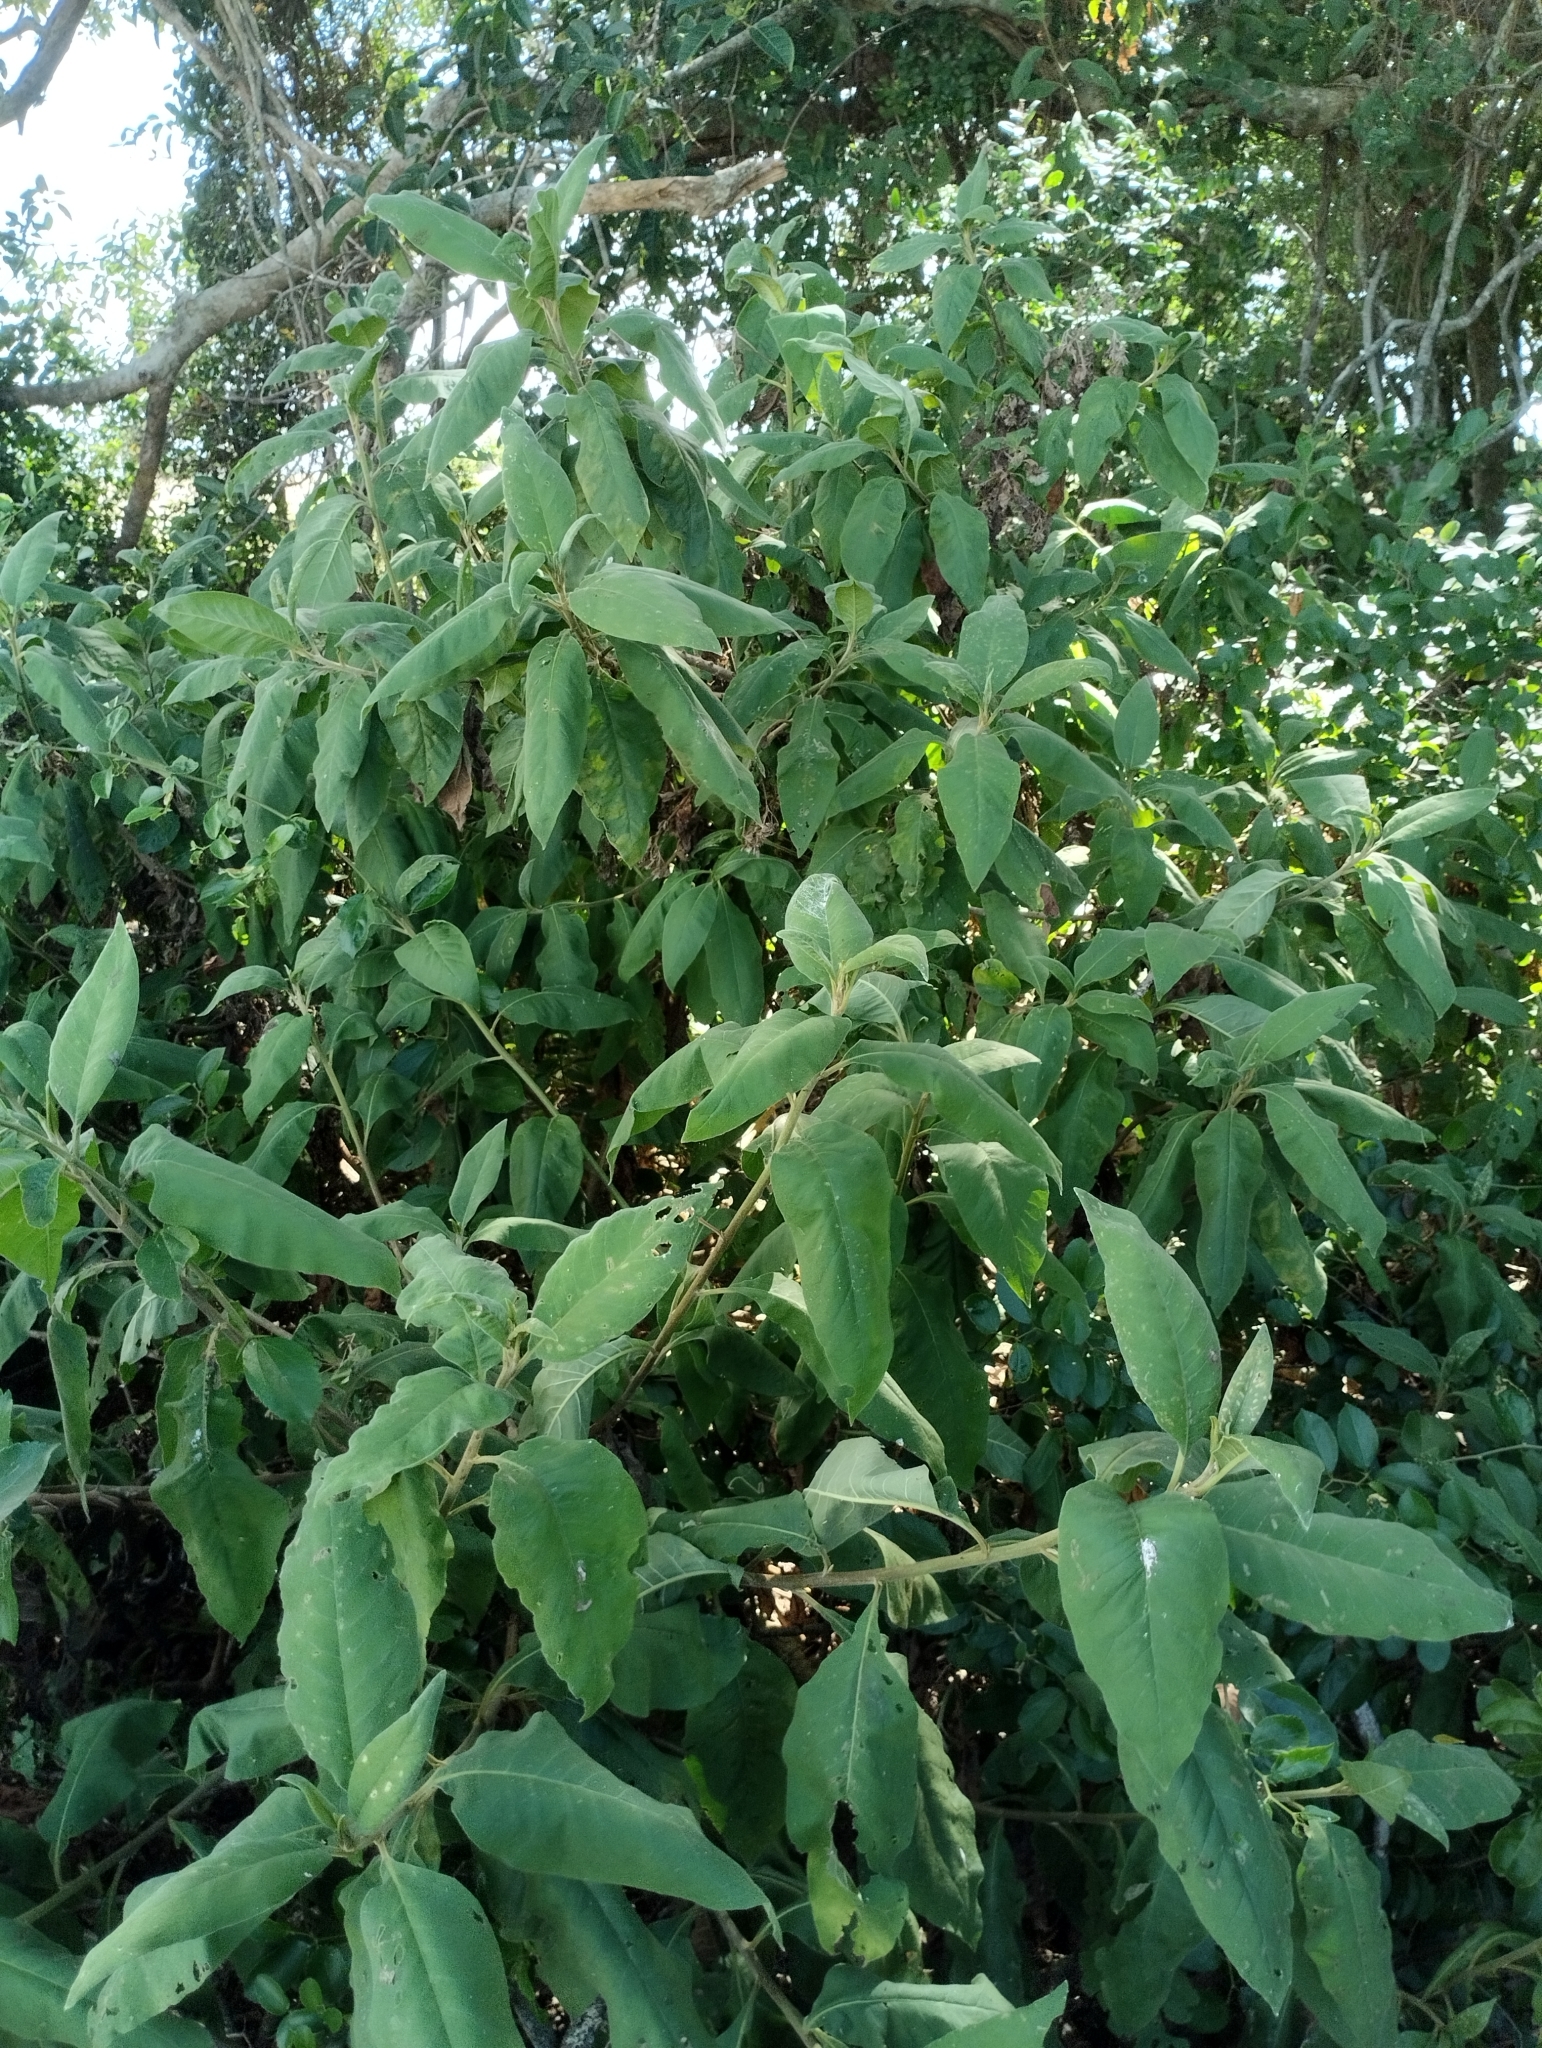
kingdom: Plantae
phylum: Tracheophyta
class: Magnoliopsida
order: Asterales
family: Asteraceae
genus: Trixis
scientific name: Trixis praestans
